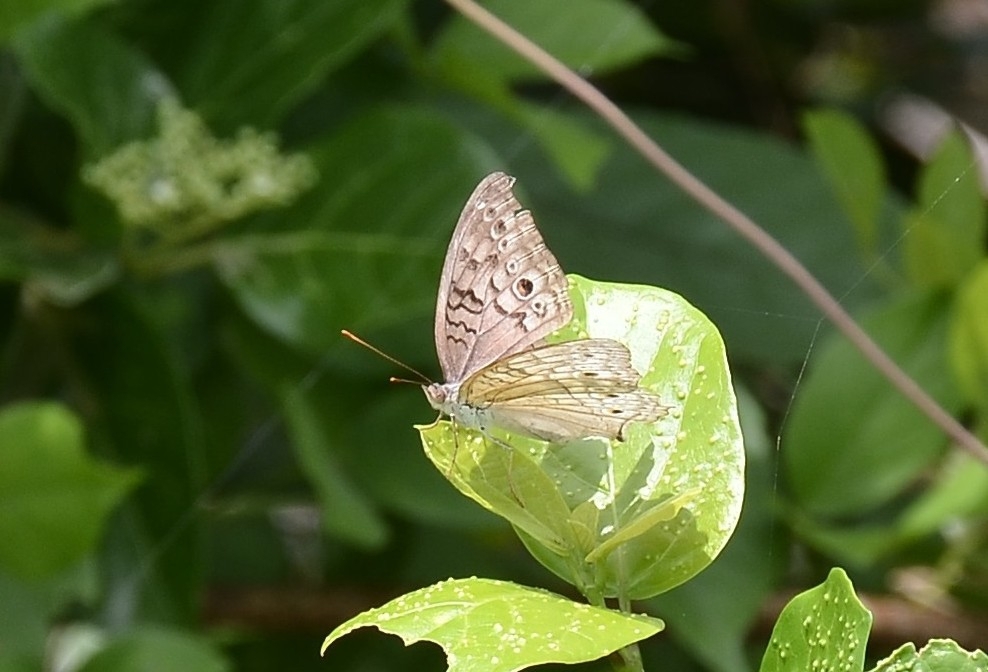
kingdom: Animalia
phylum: Arthropoda
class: Insecta
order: Lepidoptera
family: Nymphalidae
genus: Junonia
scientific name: Junonia atlites
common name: Grey pansy
